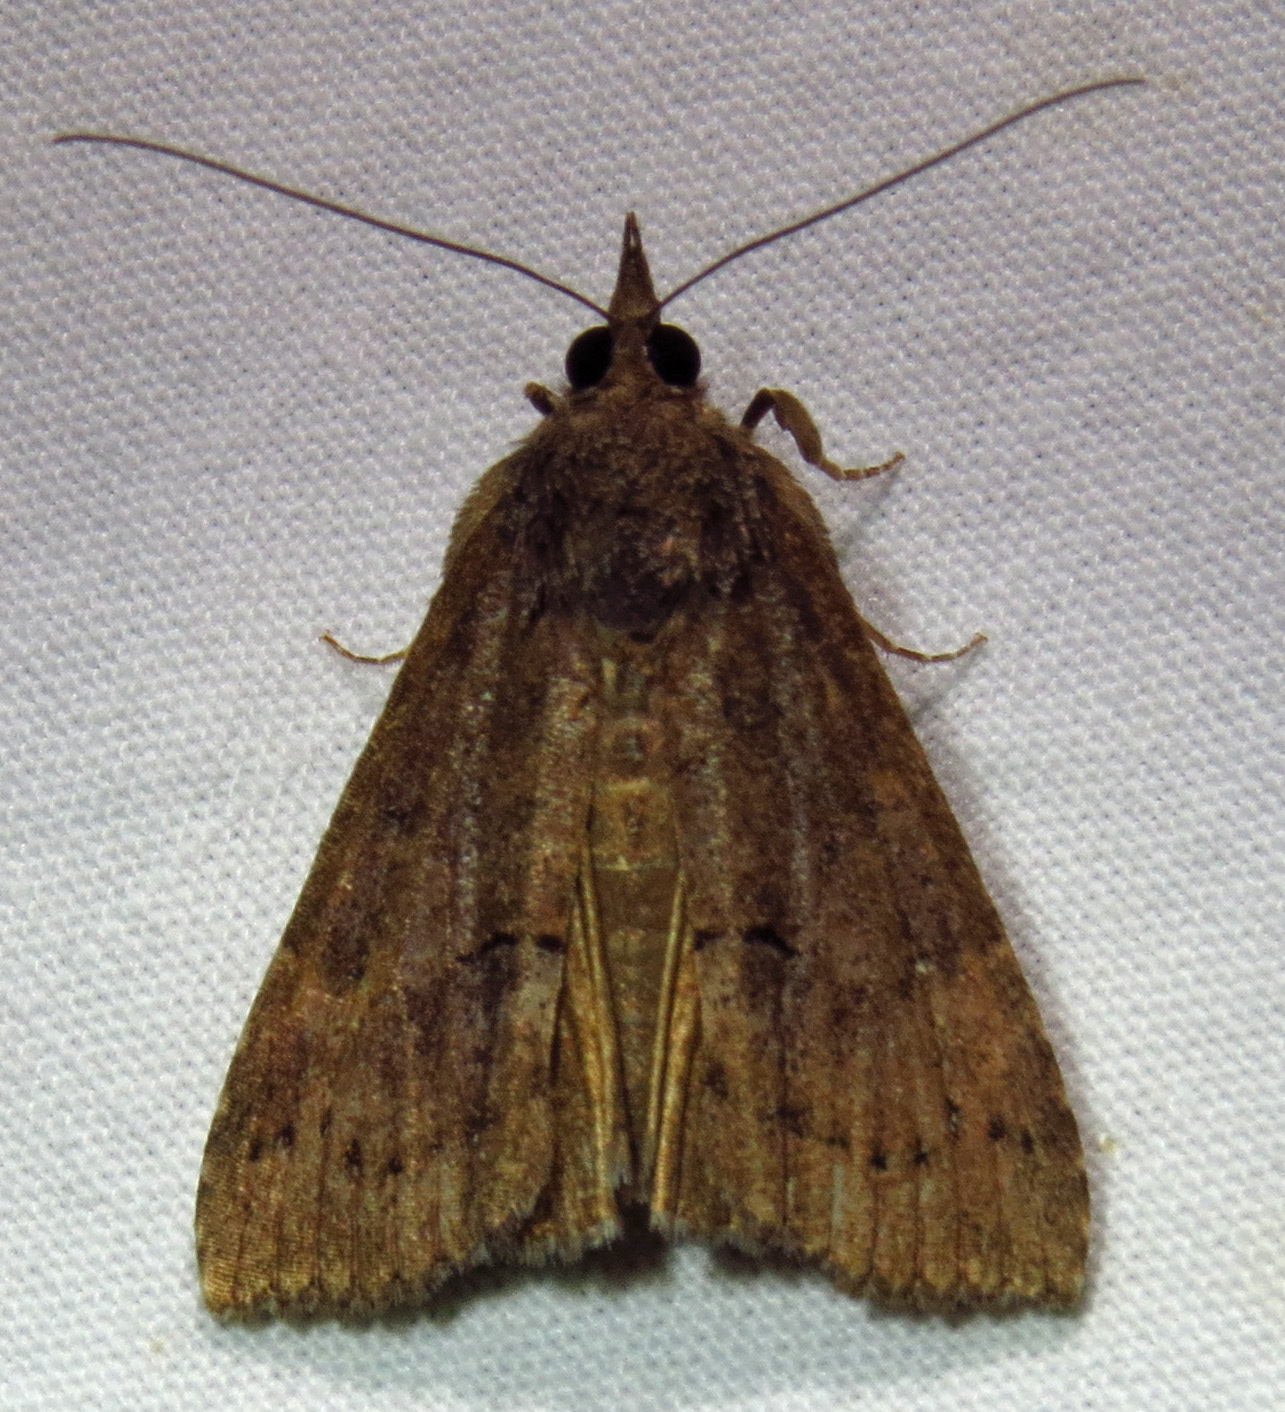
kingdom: Animalia
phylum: Arthropoda
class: Insecta
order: Lepidoptera
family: Erebidae
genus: Hypena
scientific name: Hypena scabra
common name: Green cloverworm
